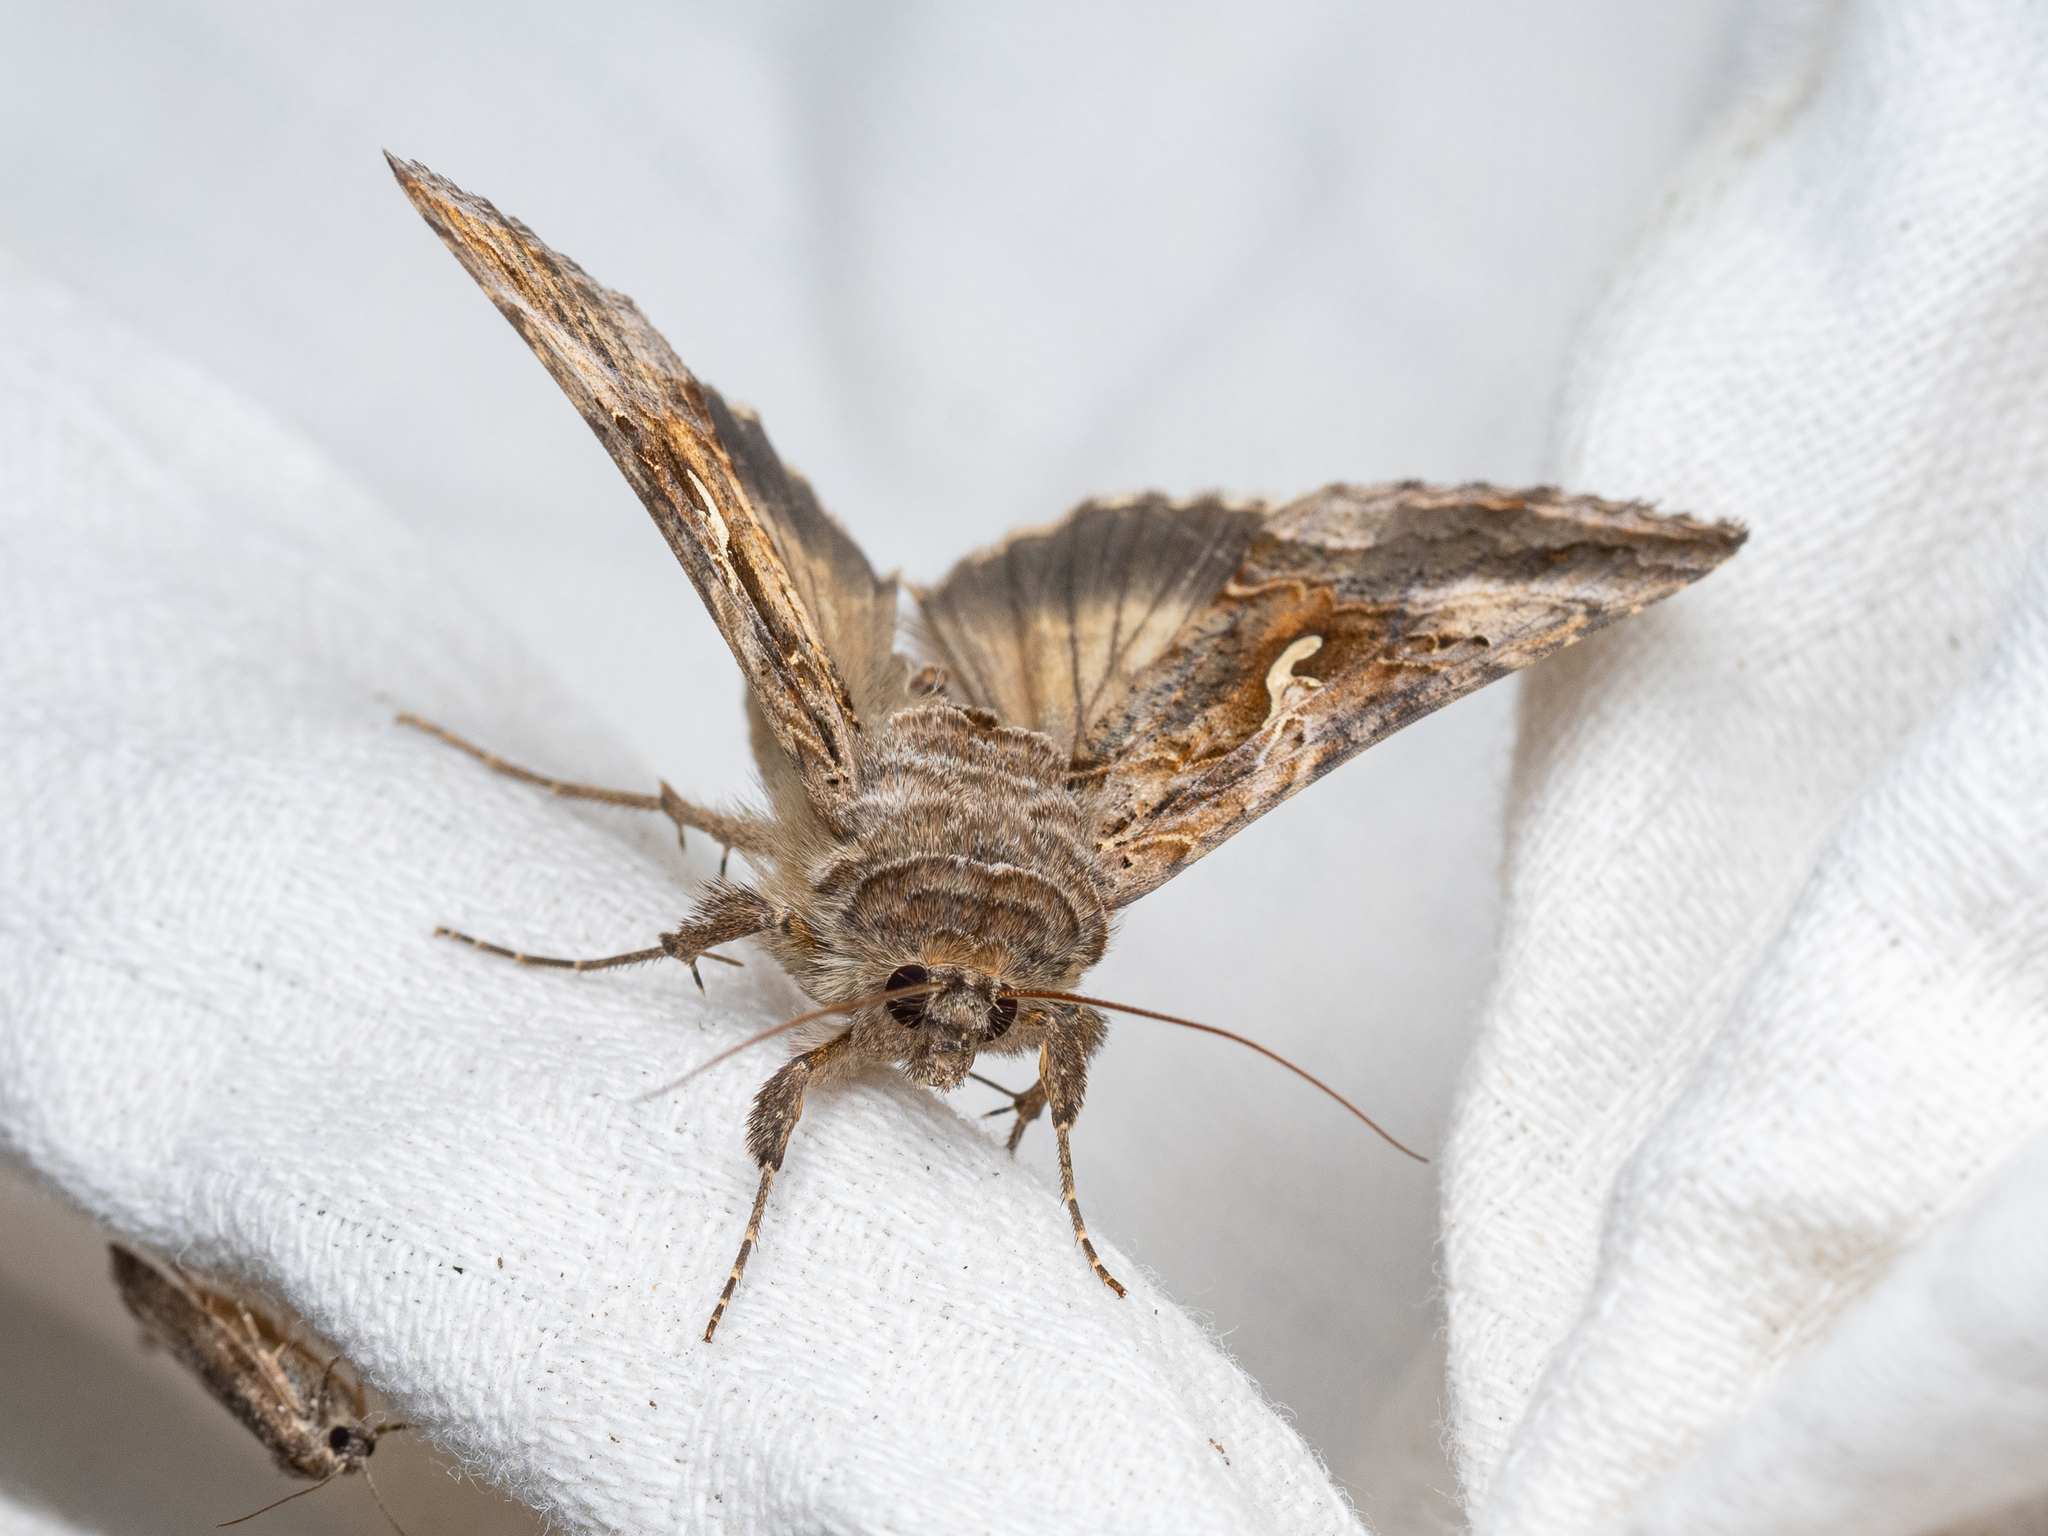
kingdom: Animalia
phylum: Arthropoda
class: Insecta
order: Lepidoptera
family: Noctuidae
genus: Autographa
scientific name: Autographa gamma
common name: Silver y
